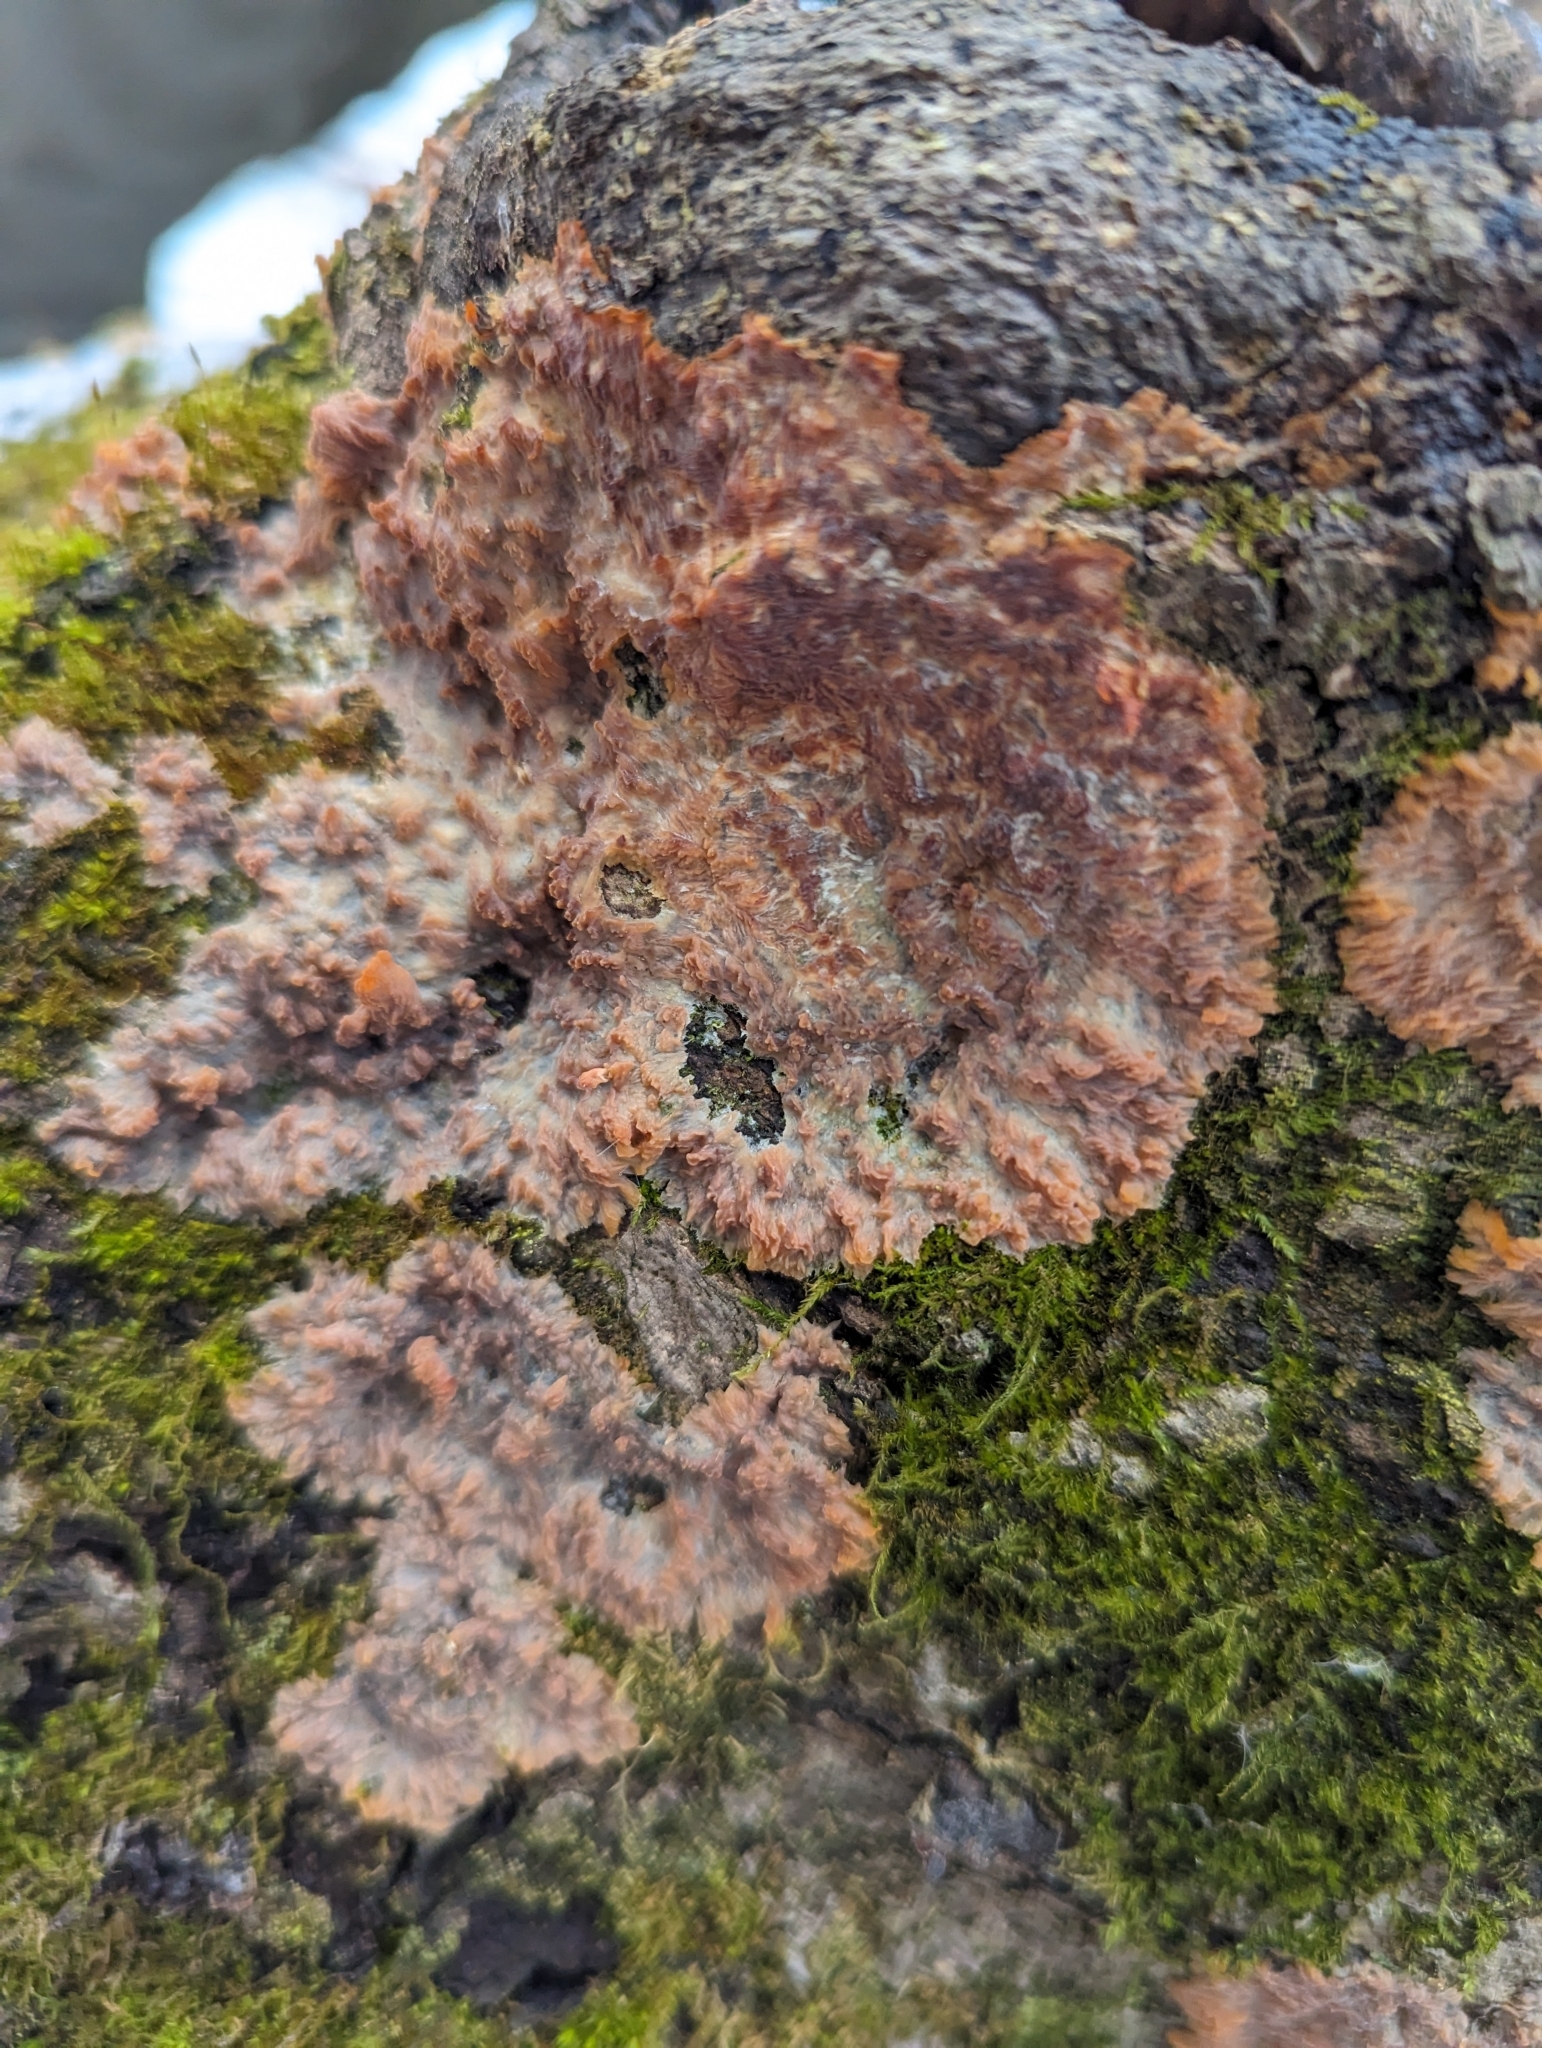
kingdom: Fungi
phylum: Basidiomycota
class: Agaricomycetes
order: Polyporales
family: Meruliaceae
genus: Phlebia
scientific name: Phlebia radiata
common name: Wrinkled crust
